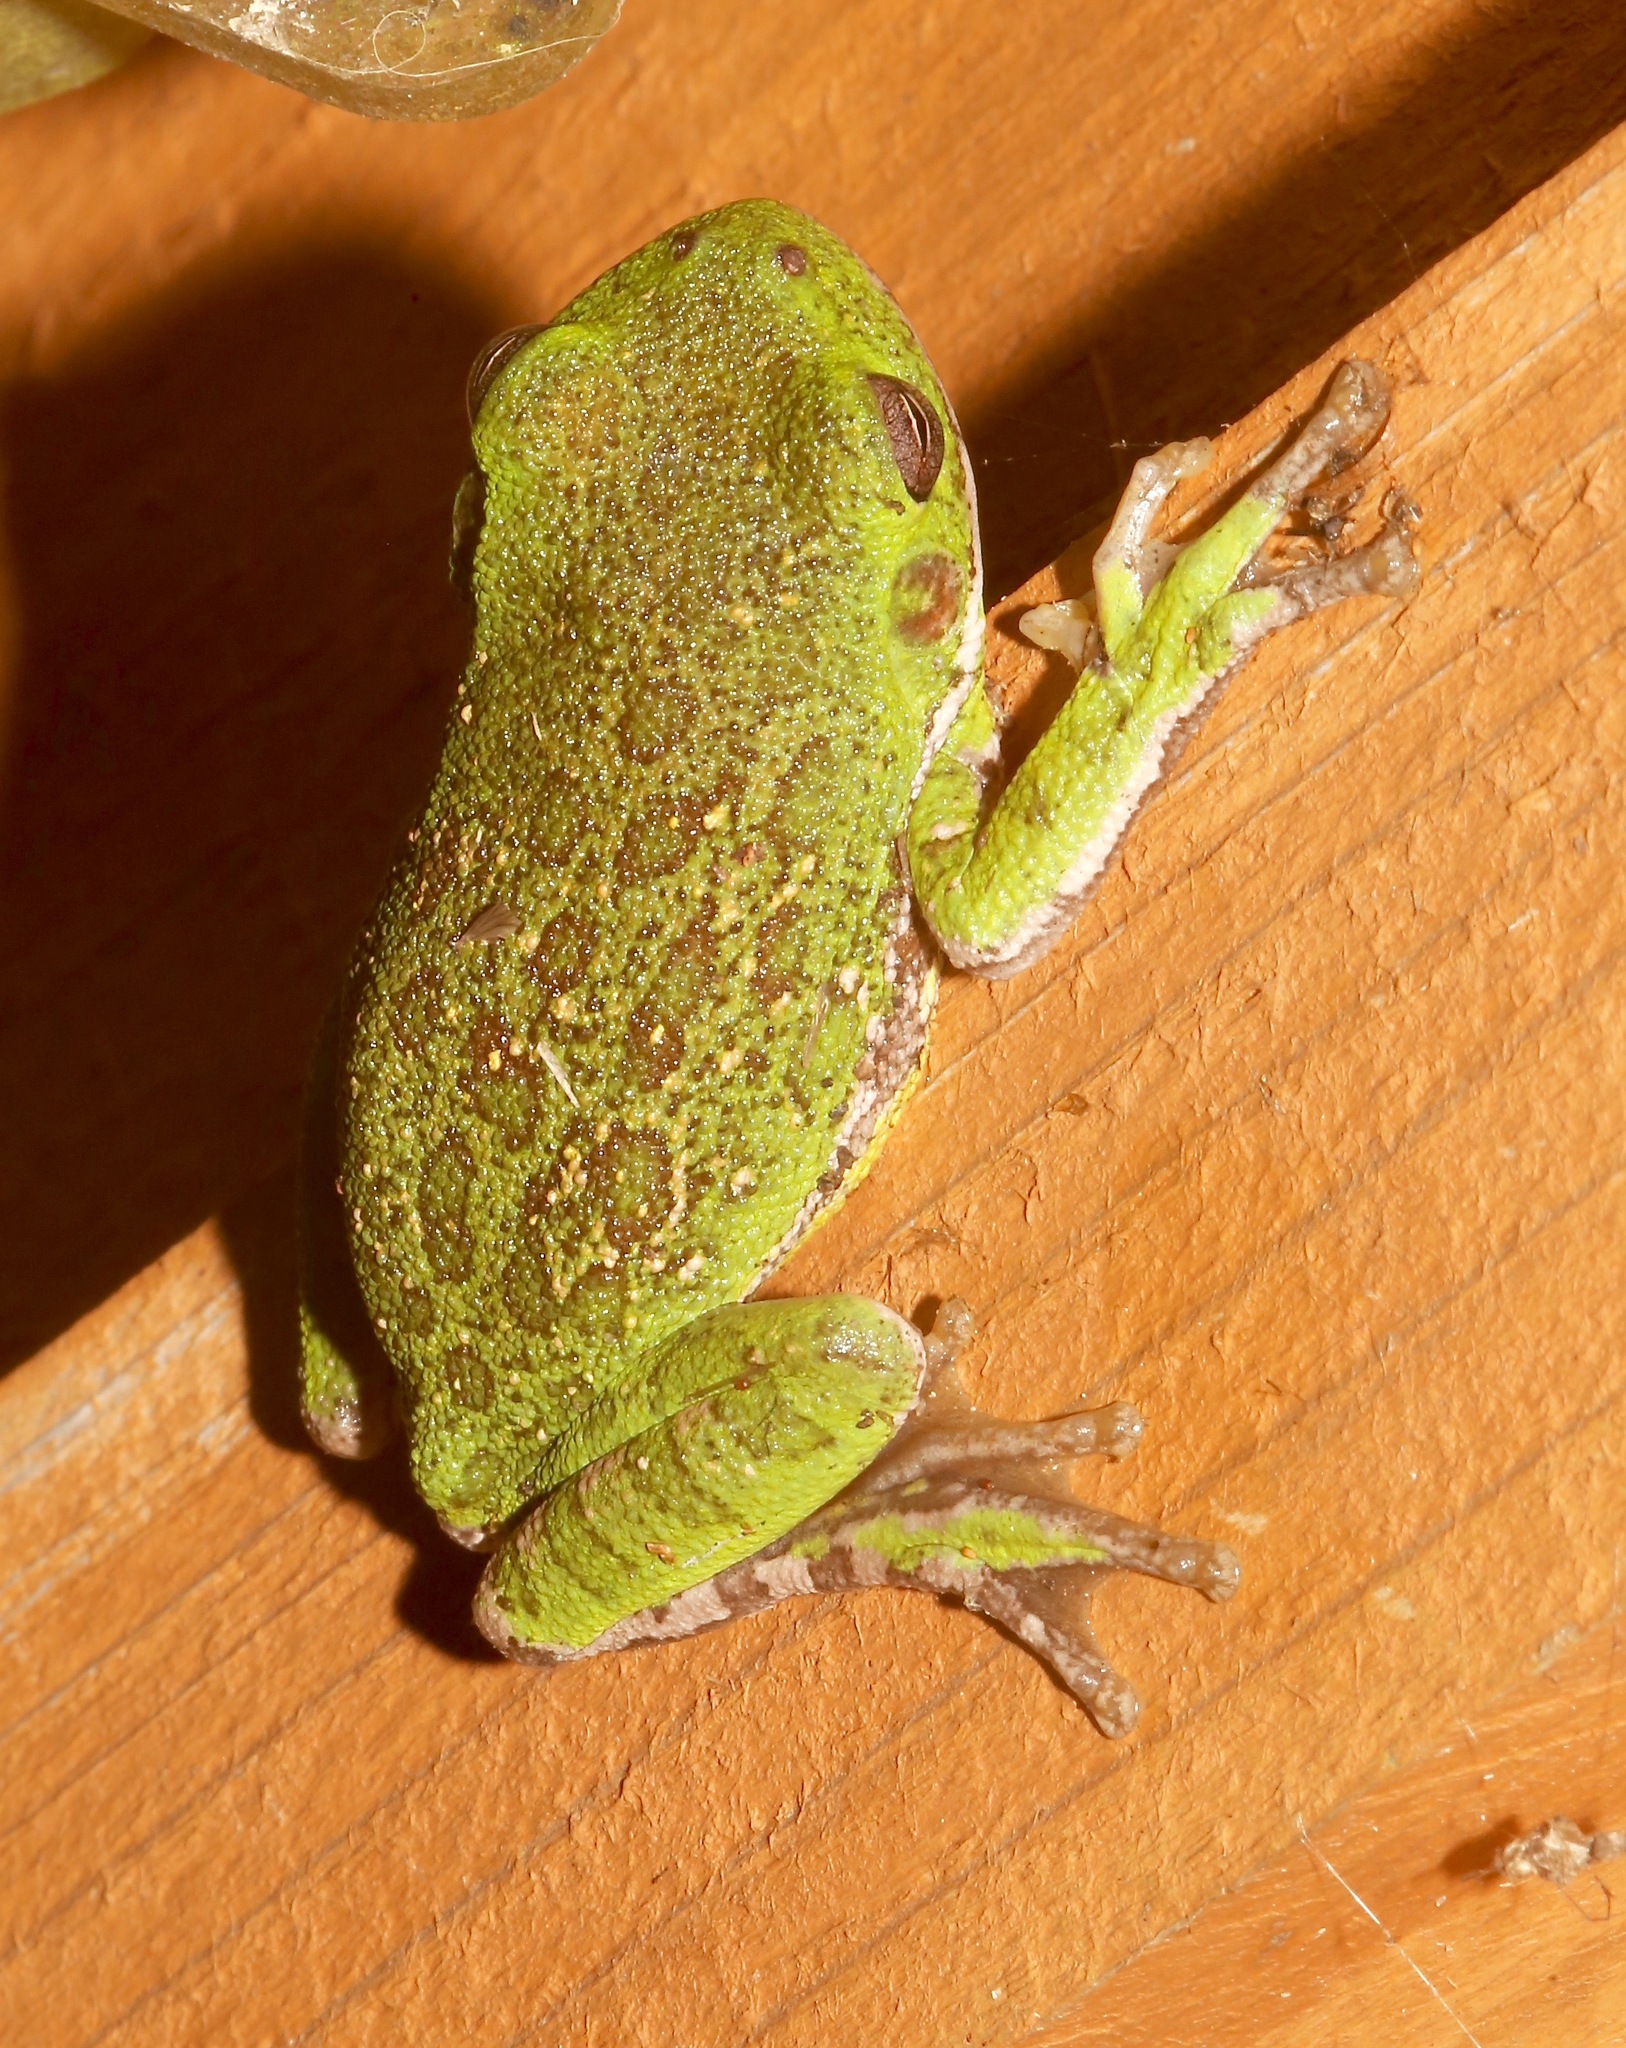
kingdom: Animalia
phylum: Chordata
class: Amphibia
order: Anura
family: Hylidae
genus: Dryophytes
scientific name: Dryophytes gratiosus
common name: Barking treefrog
